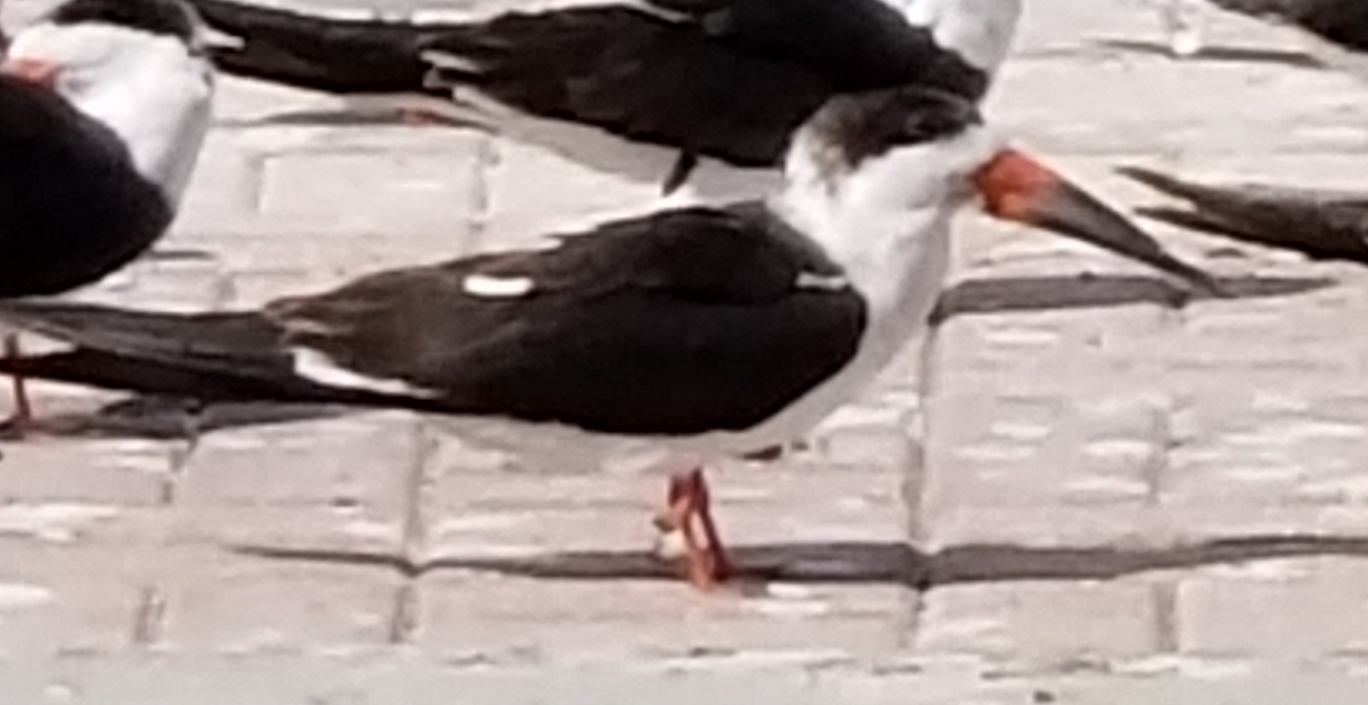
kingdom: Animalia
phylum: Chordata
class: Aves
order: Charadriiformes
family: Laridae
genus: Rynchops
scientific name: Rynchops niger
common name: Black skimmer
